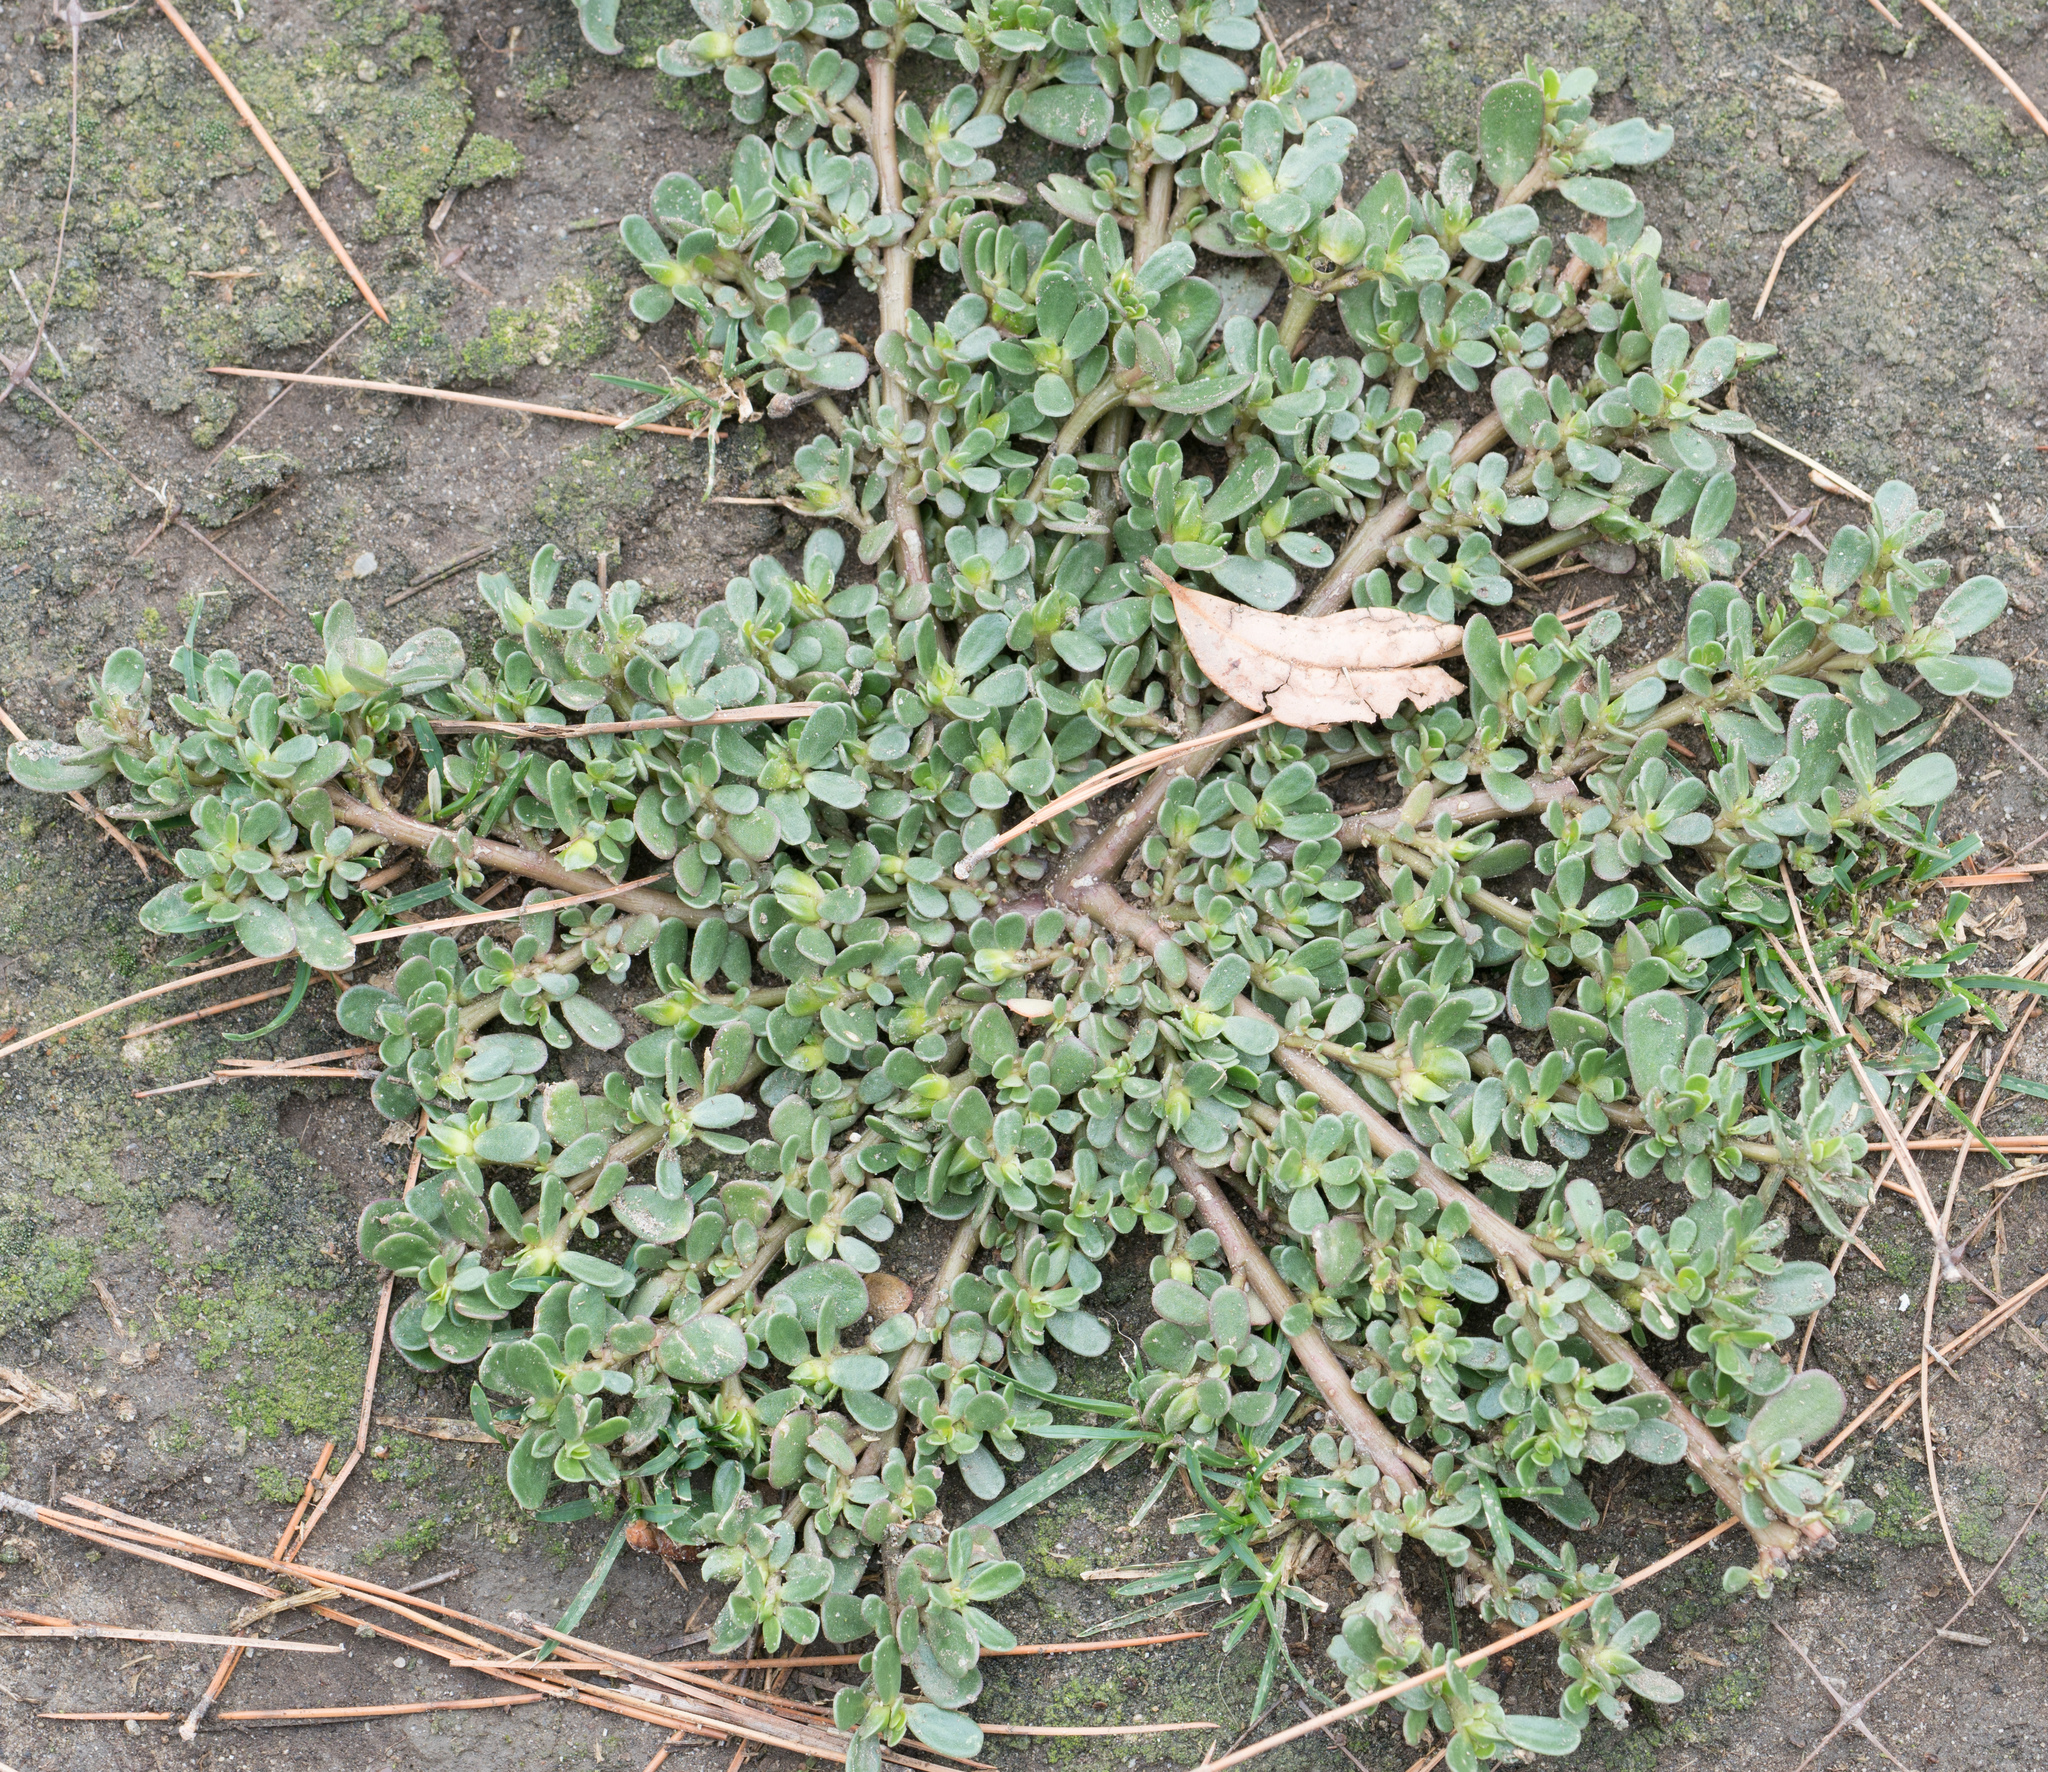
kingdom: Plantae
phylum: Tracheophyta
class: Magnoliopsida
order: Caryophyllales
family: Portulacaceae
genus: Portulaca
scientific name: Portulaca oleracea
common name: Common purslane
